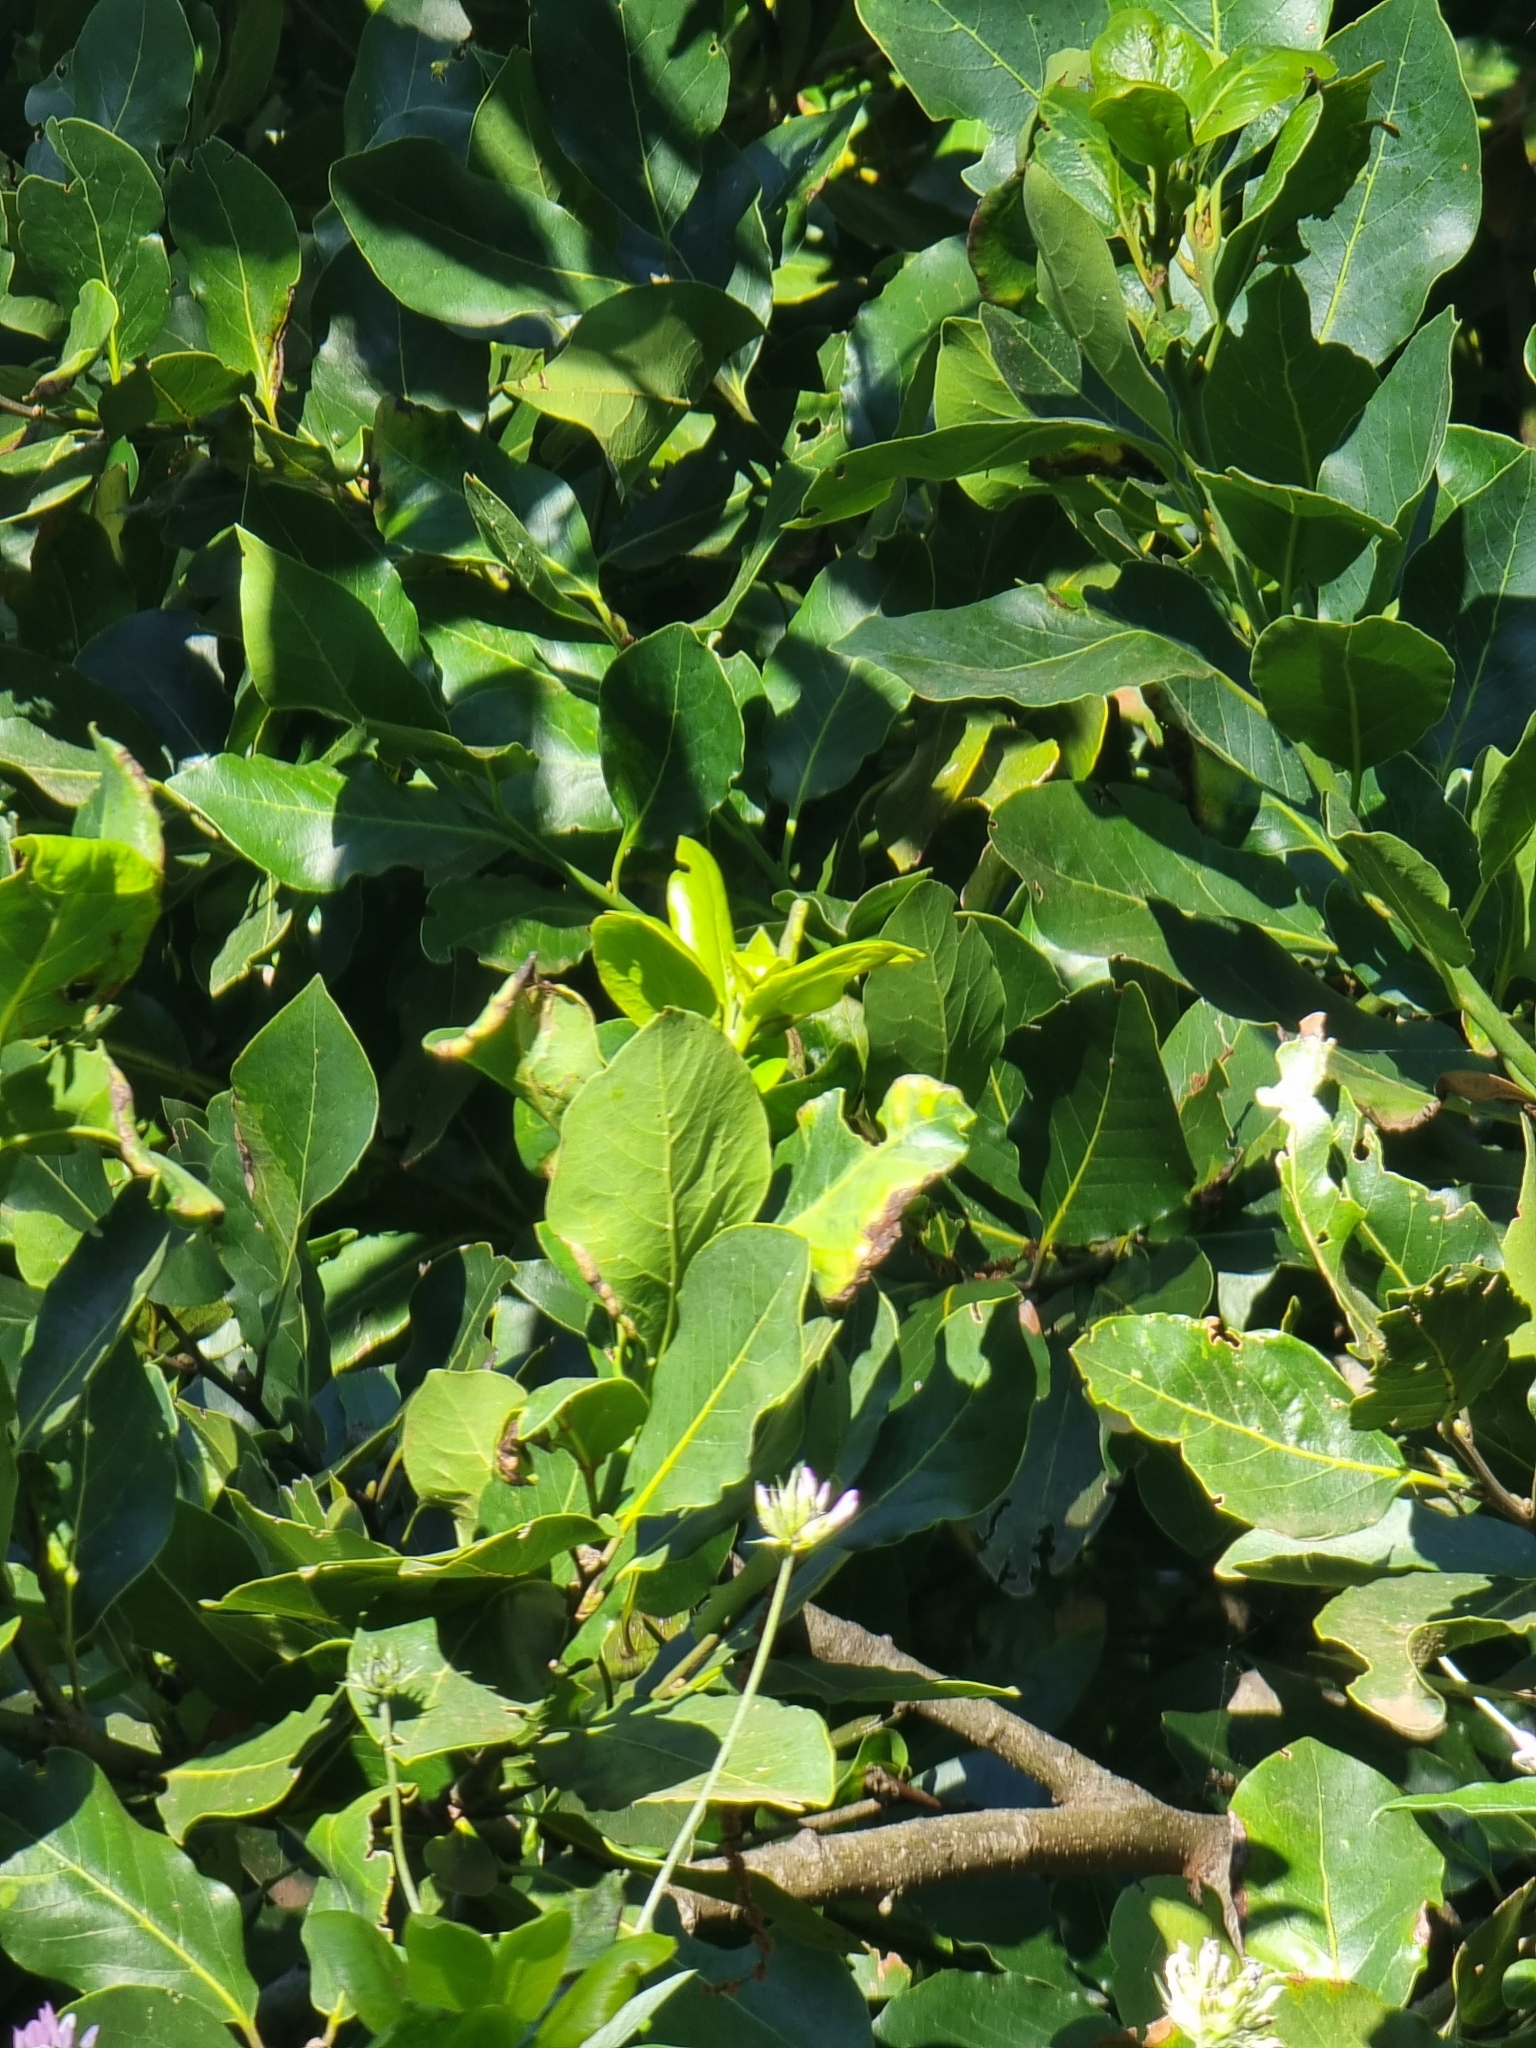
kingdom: Plantae
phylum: Tracheophyta
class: Magnoliopsida
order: Laurales
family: Lauraceae
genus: Laurus
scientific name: Laurus novocanariensis
